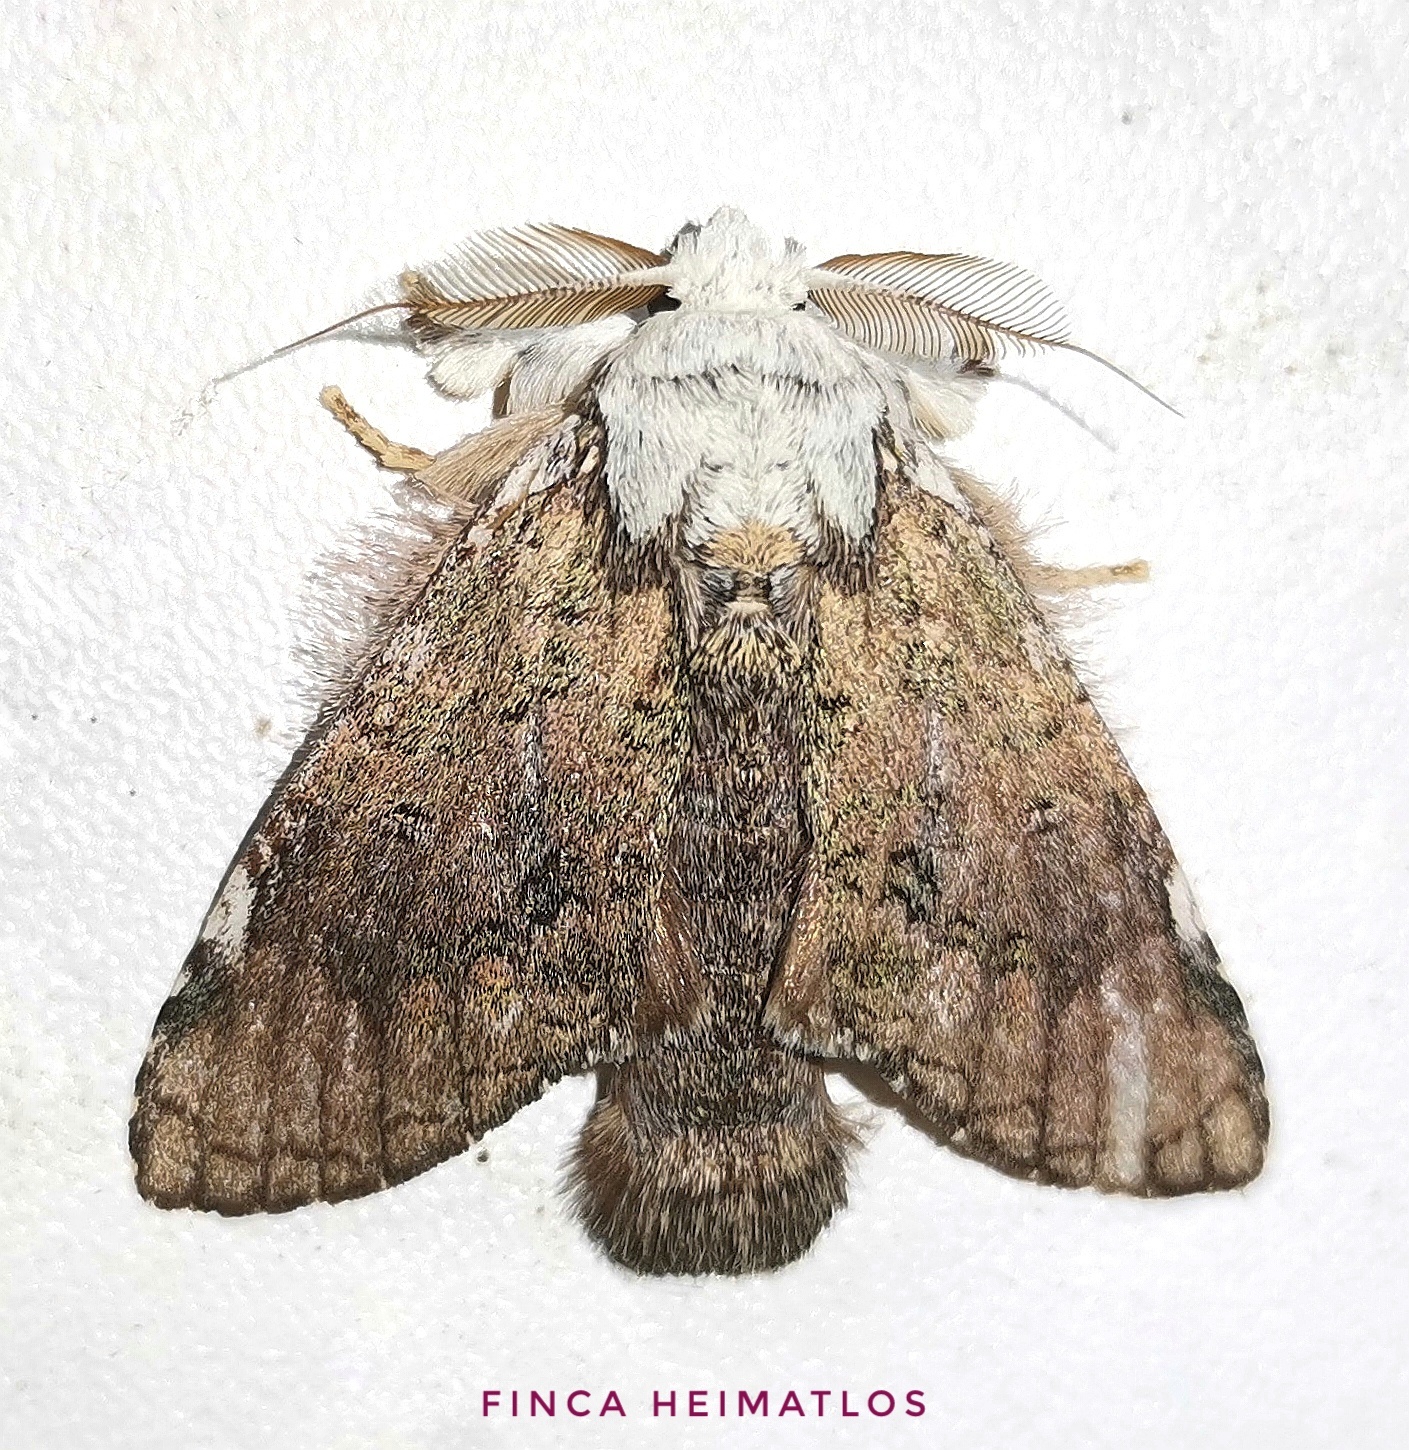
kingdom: Animalia
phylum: Arthropoda
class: Insecta
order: Lepidoptera
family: Notodontidae
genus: Farigia
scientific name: Farigia pallida
